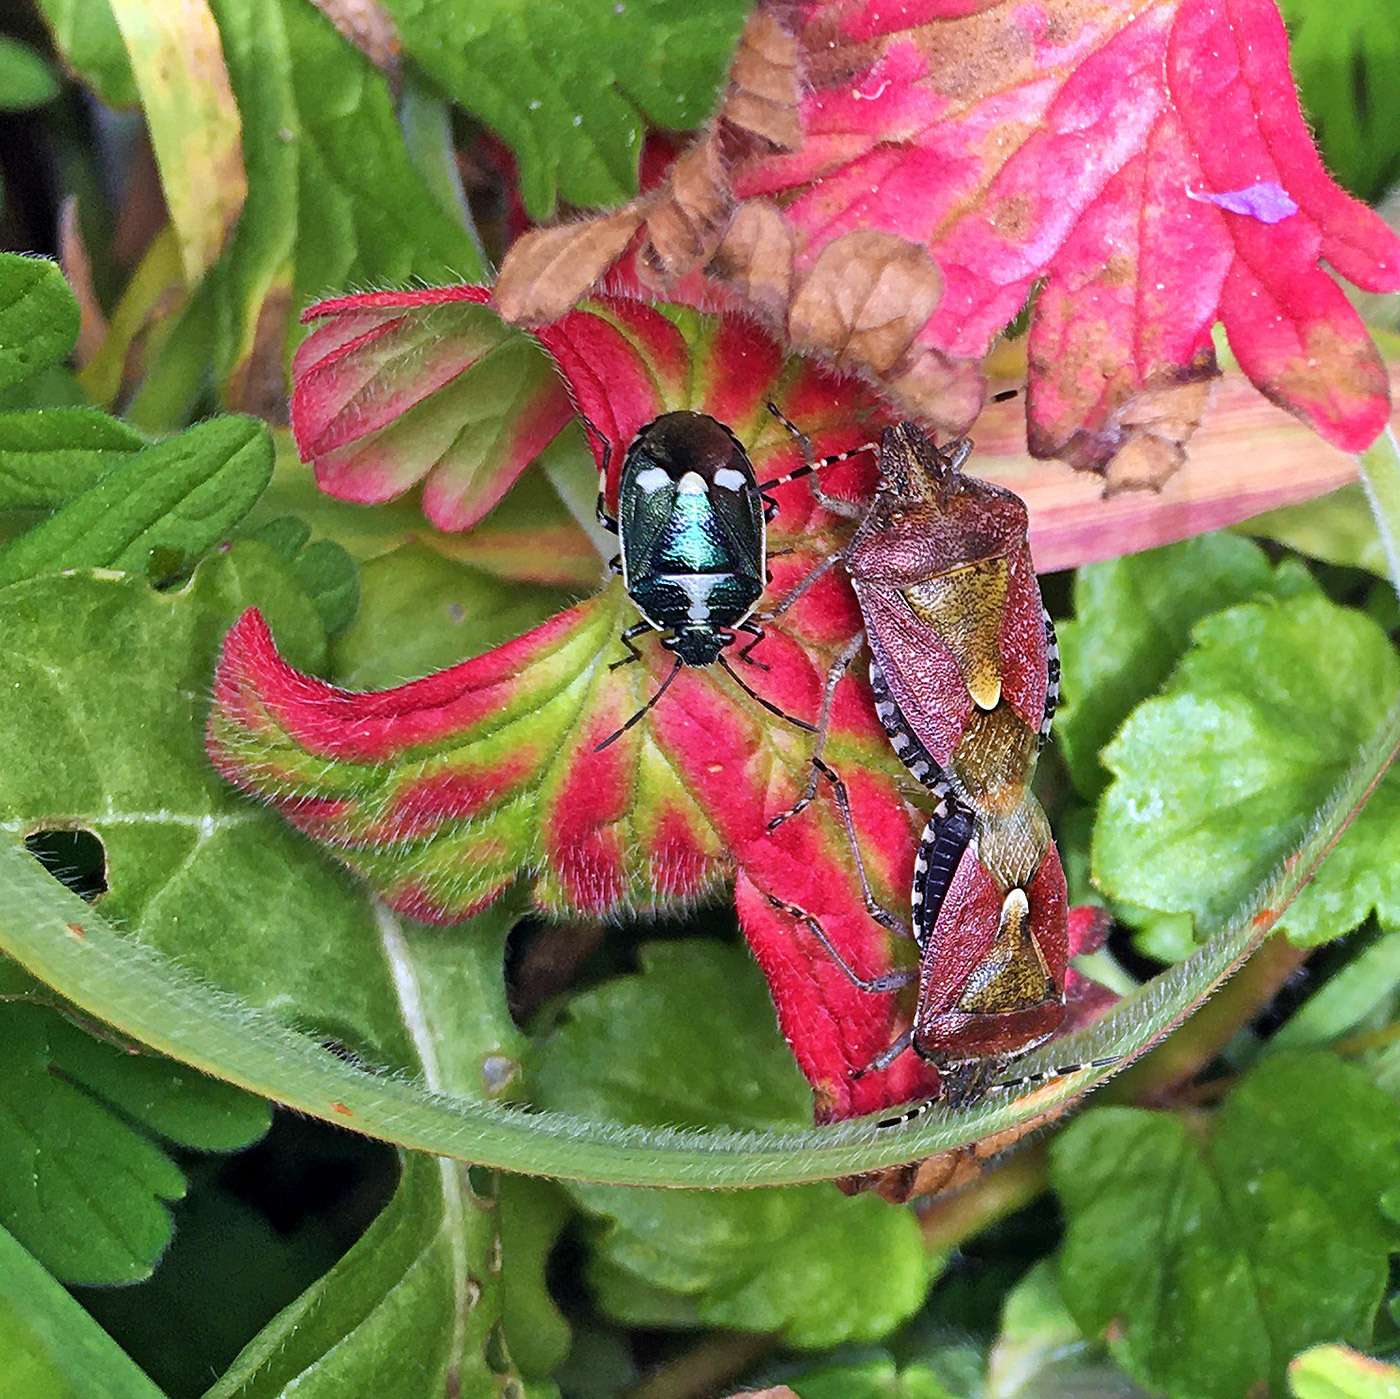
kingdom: Animalia
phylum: Arthropoda
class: Insecta
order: Hemiptera
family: Pentatomidae
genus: Dolycoris
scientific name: Dolycoris baccarum
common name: Sloe bug
